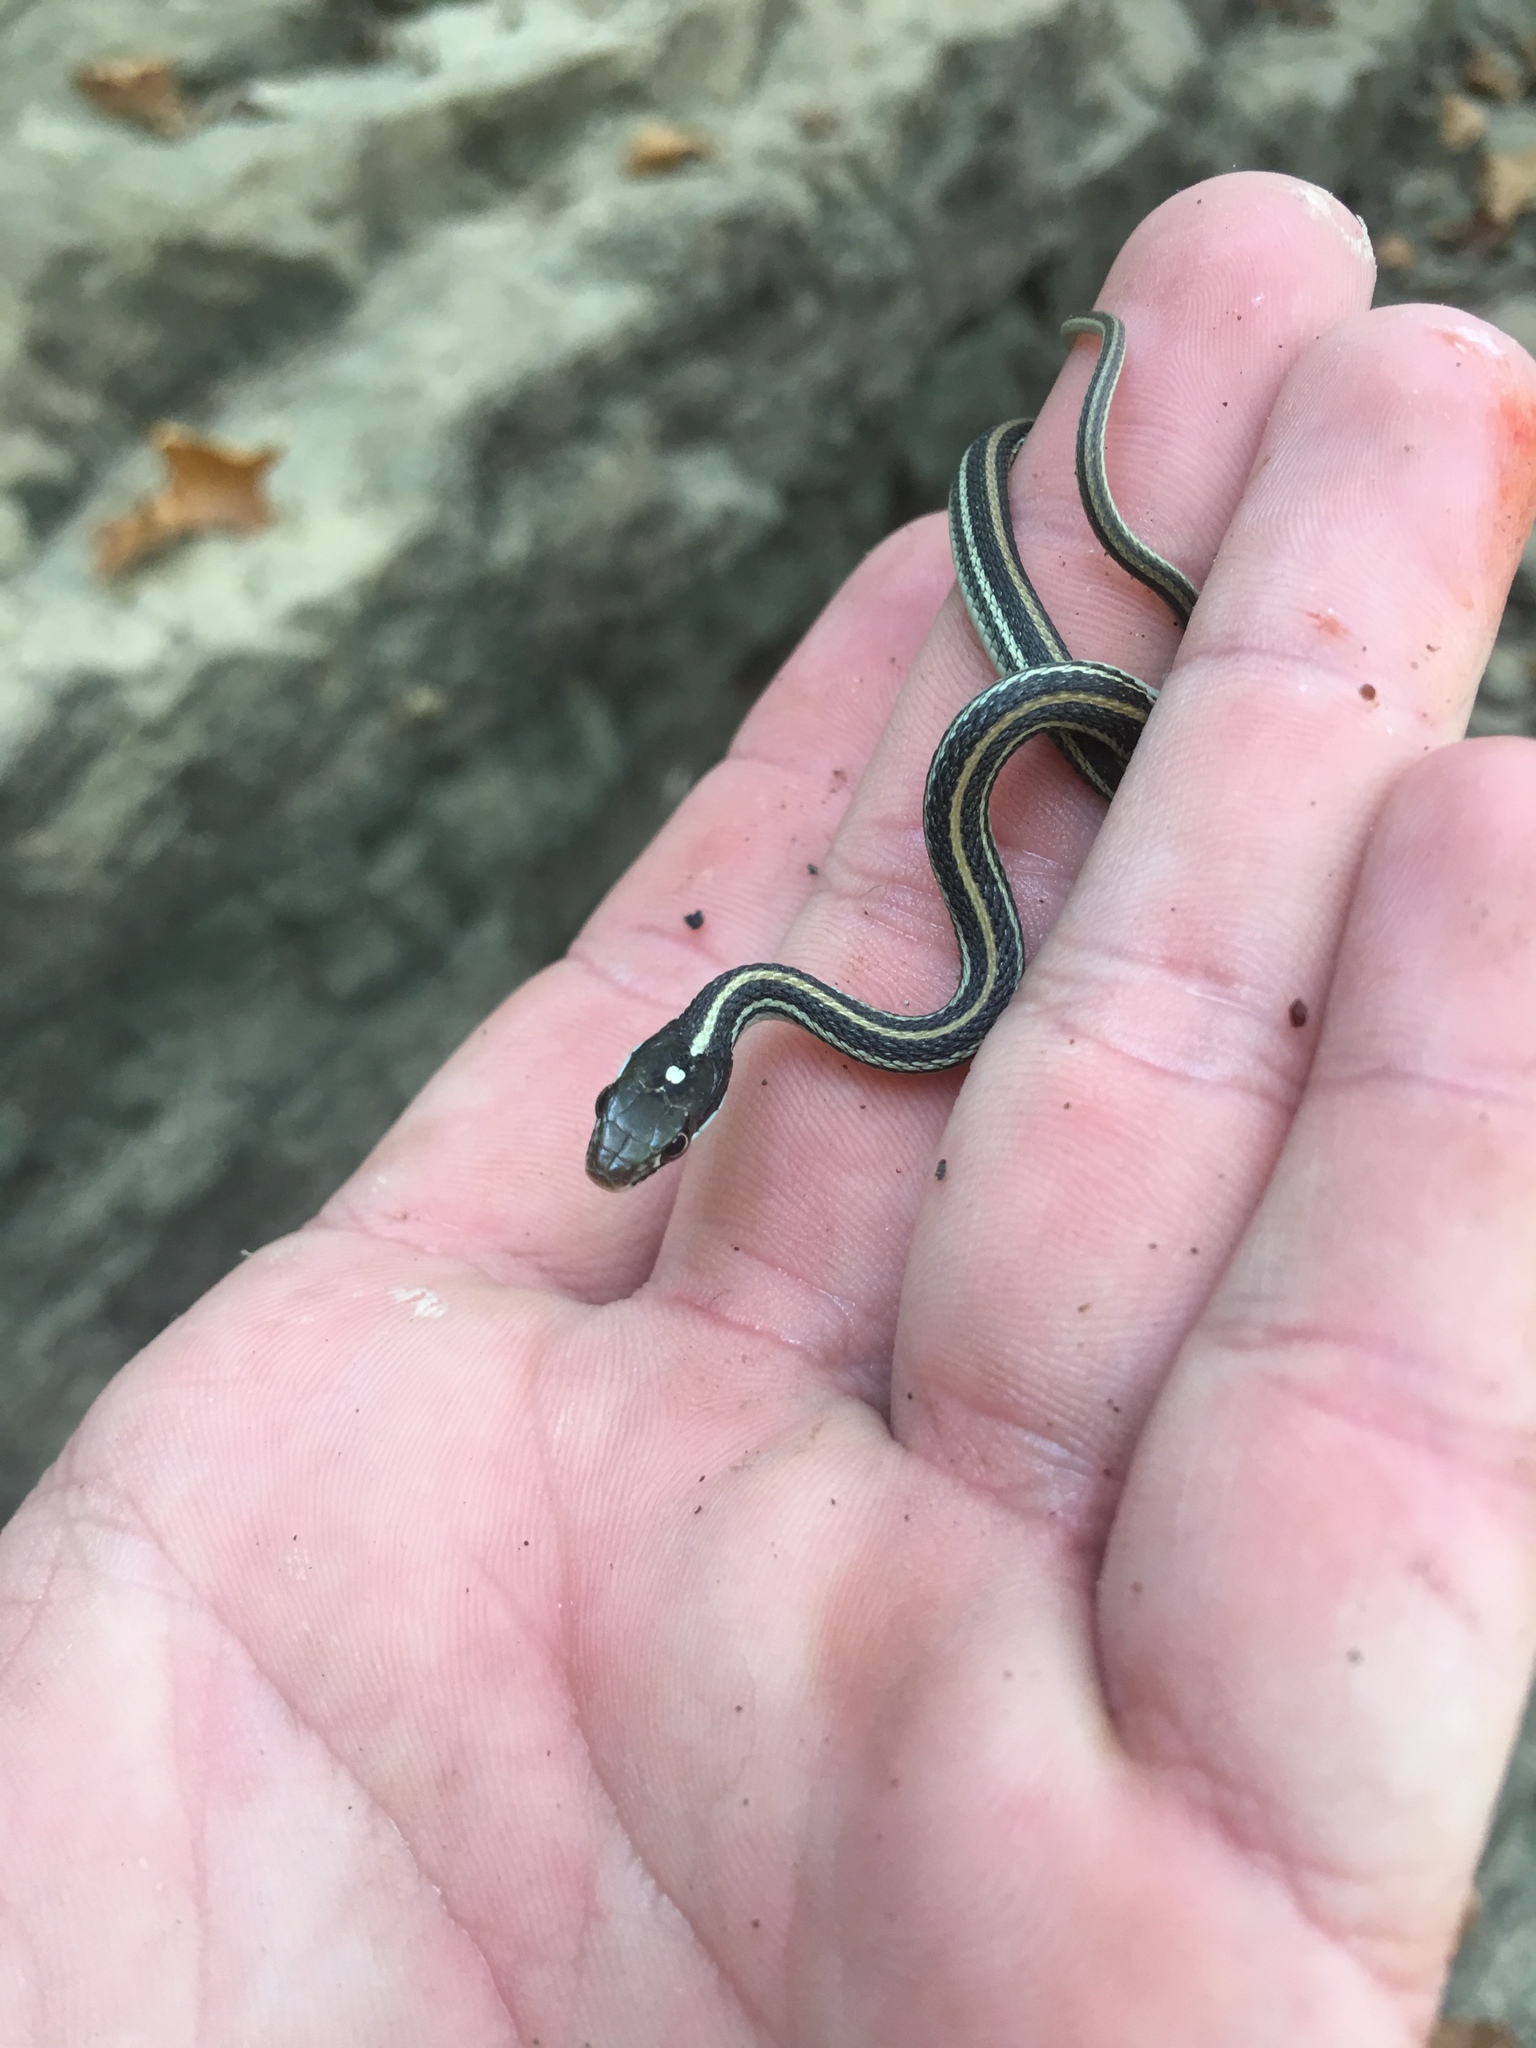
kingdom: Animalia
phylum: Chordata
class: Squamata
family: Colubridae
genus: Thamnophis
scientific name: Thamnophis proximus
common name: Western ribbon snake
